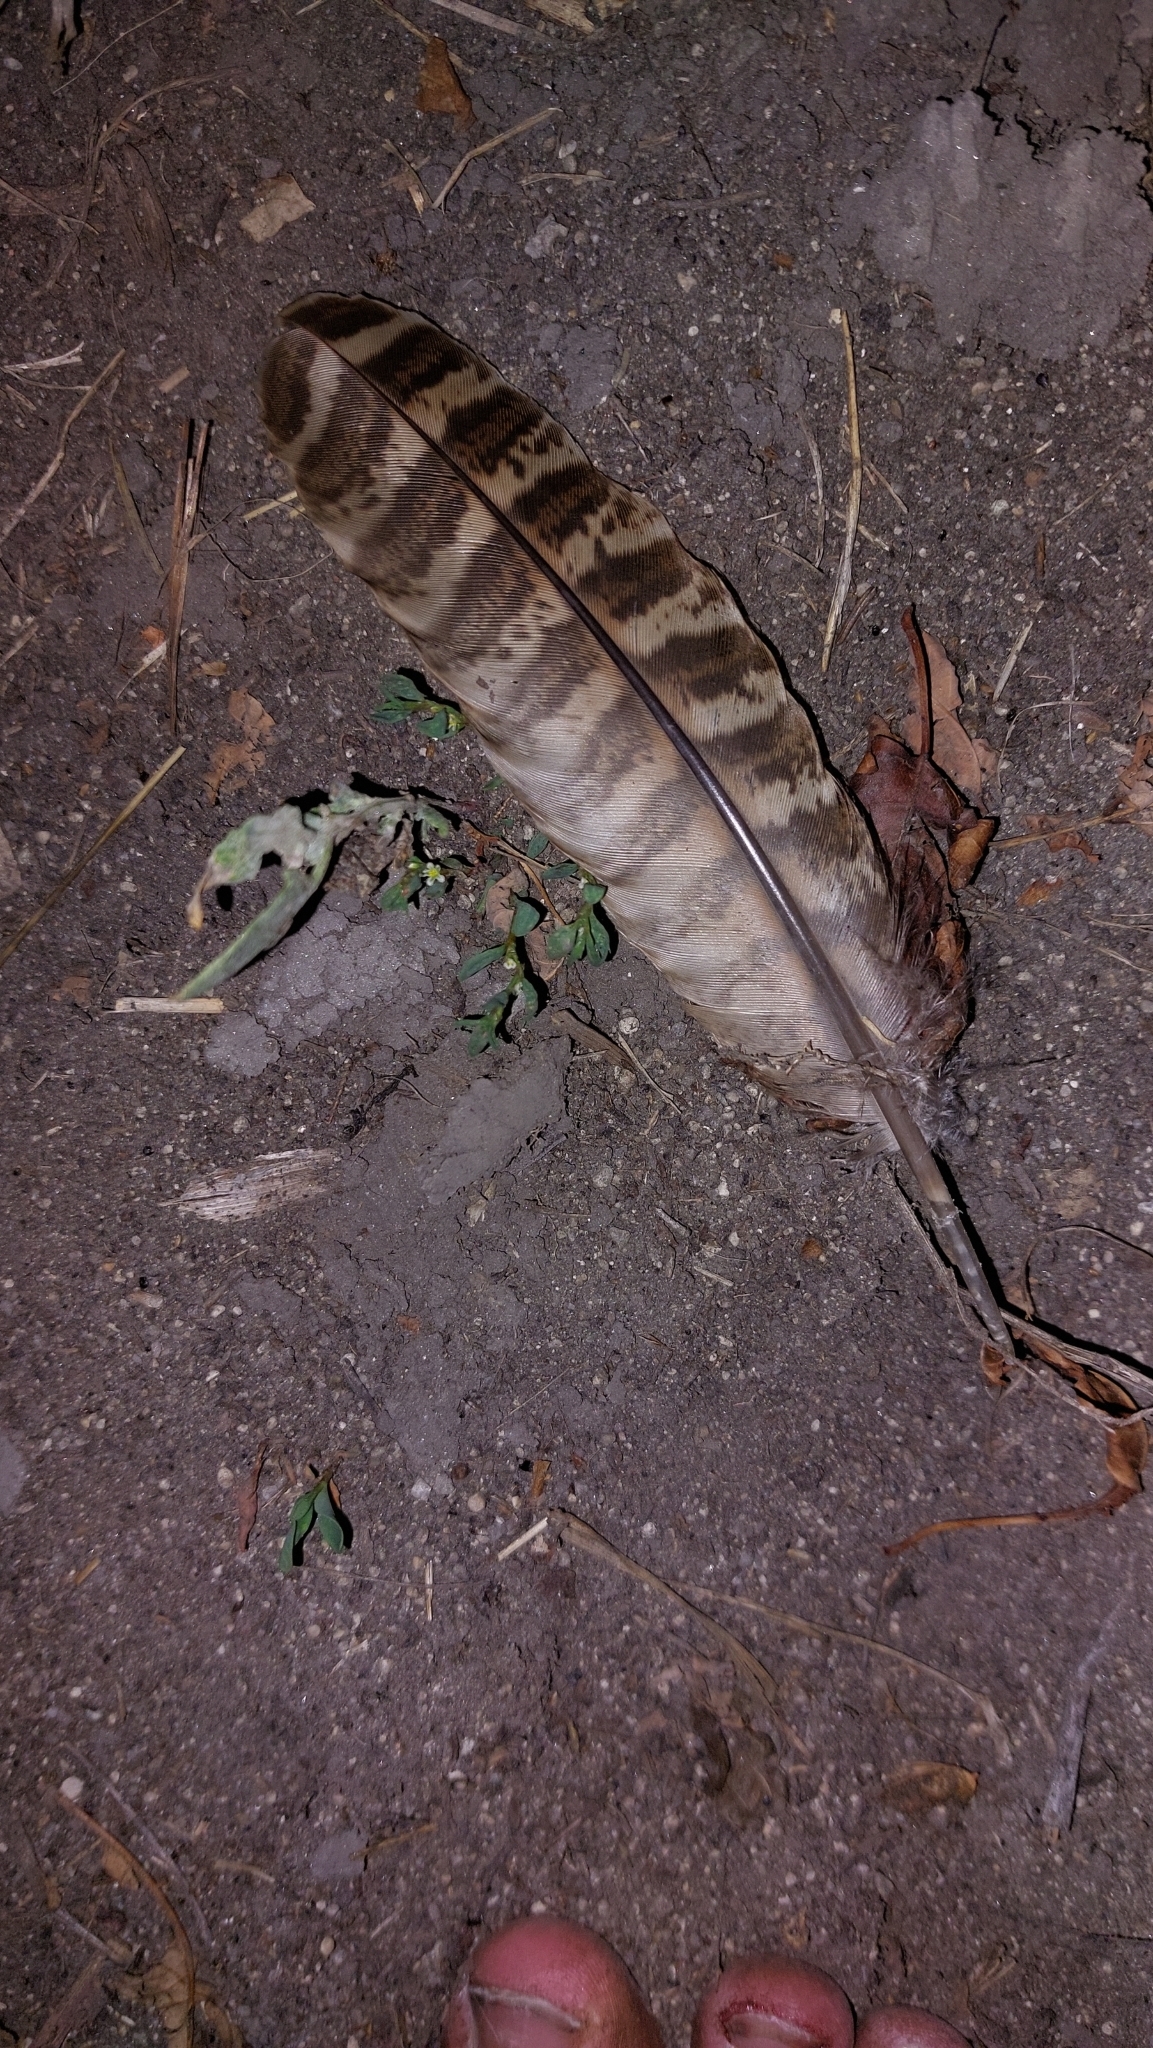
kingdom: Animalia
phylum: Chordata
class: Aves
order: Galliformes
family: Phasianidae
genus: Phasianus
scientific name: Phasianus colchicus
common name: Common pheasant
